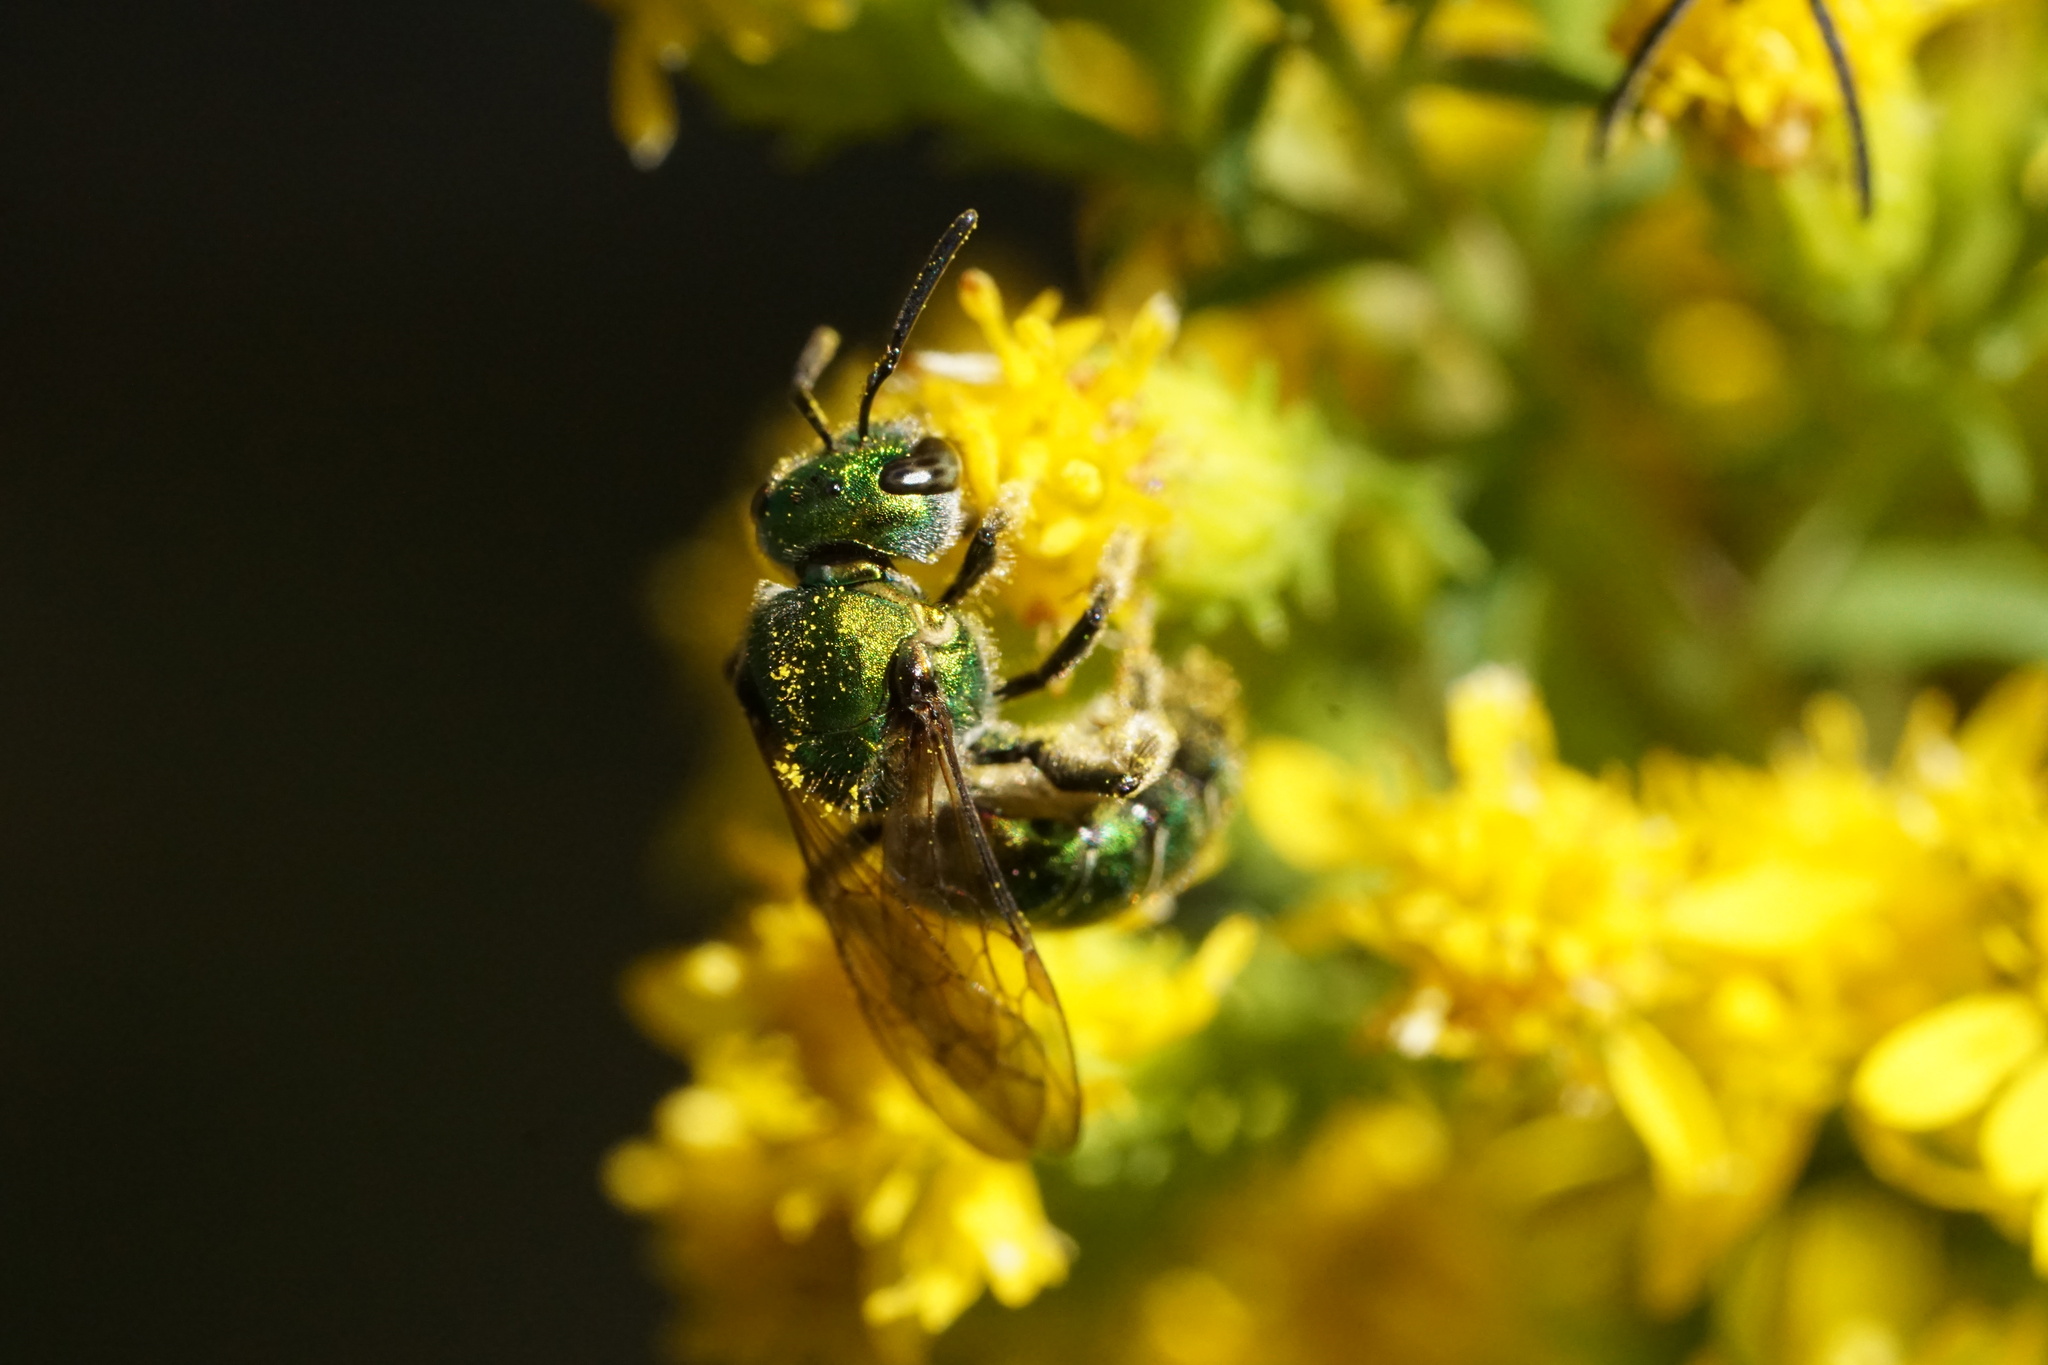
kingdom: Animalia
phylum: Arthropoda
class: Insecta
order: Hymenoptera
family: Halictidae
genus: Augochlora
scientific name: Augochlora pura
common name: Pure green sweat bee
